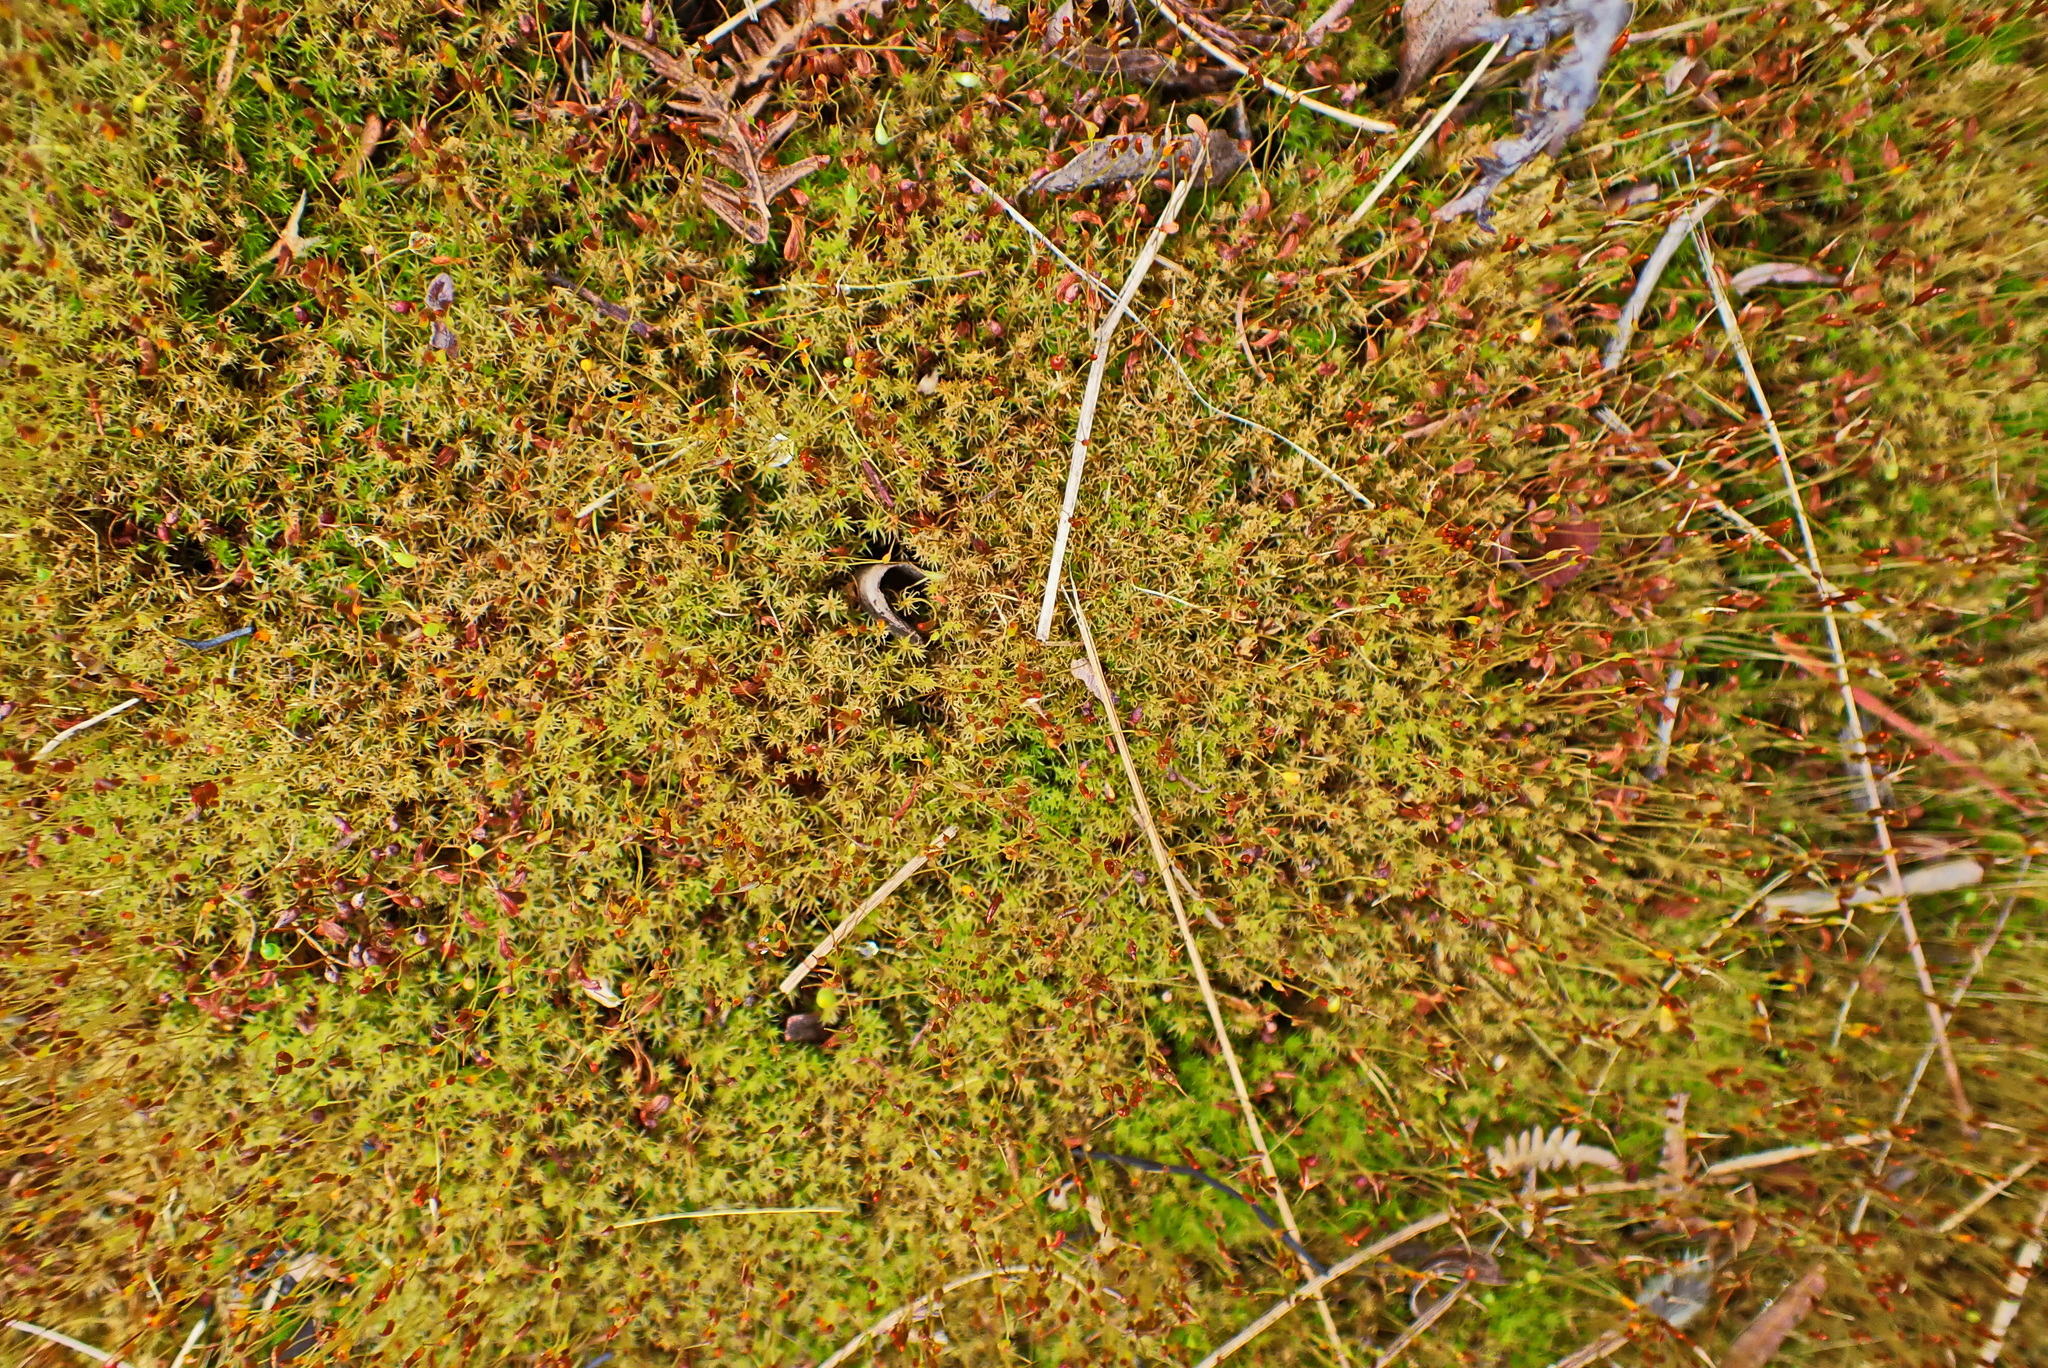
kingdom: Plantae
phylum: Bryophyta
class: Bryopsida
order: Dicranales
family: Ditrichaceae
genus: Ceratodon
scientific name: Ceratodon purpureus
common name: Redshank
